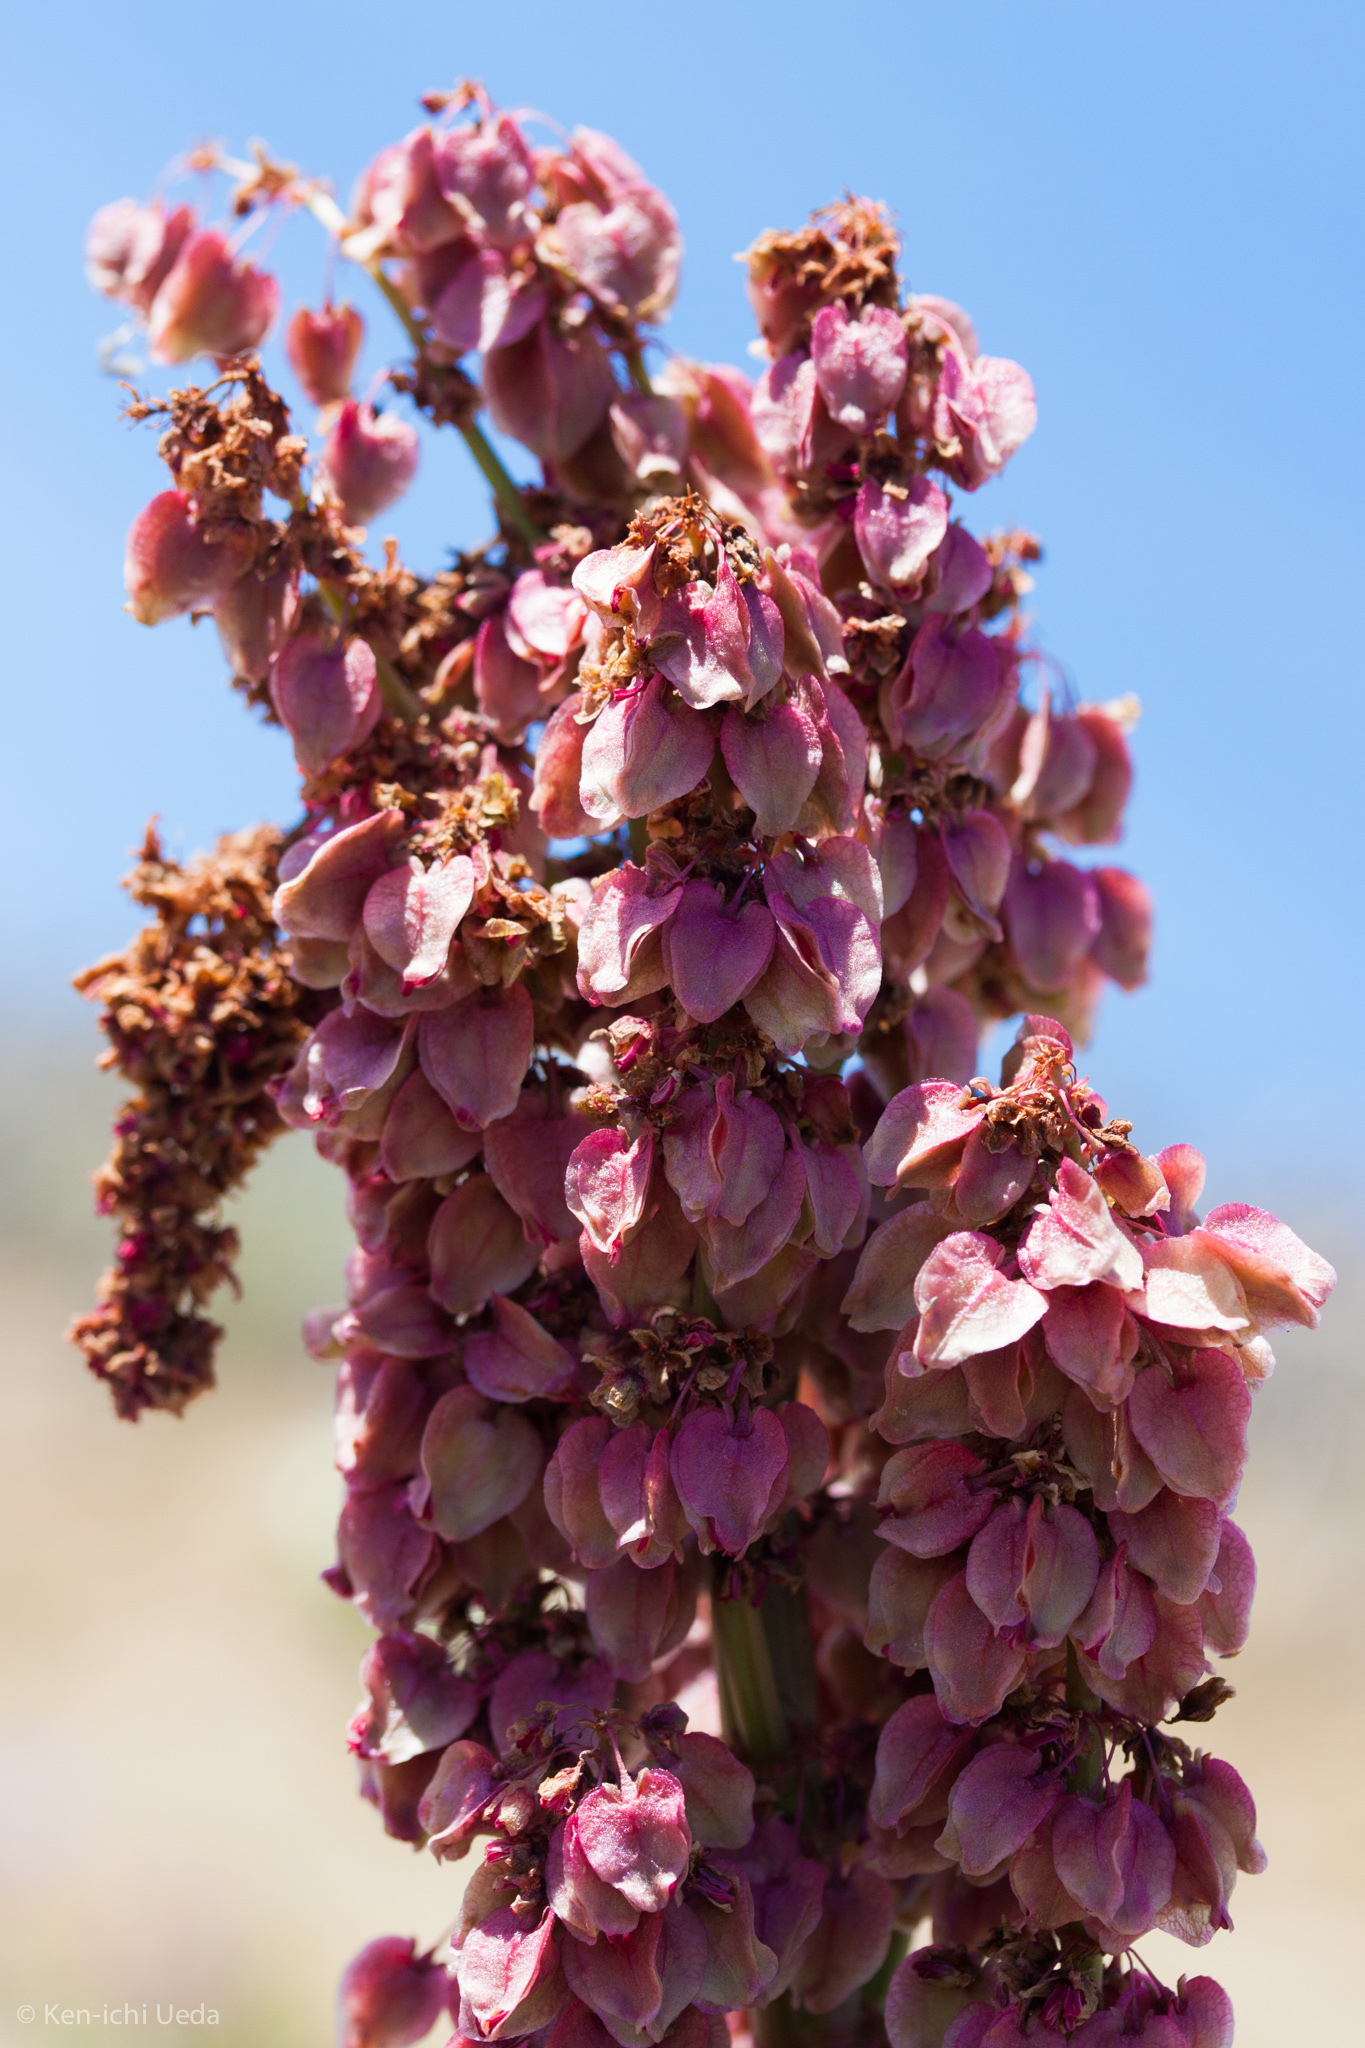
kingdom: Plantae
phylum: Tracheophyta
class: Magnoliopsida
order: Caryophyllales
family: Polygonaceae
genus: Rumex
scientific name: Rumex hymenosepalus
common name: Ganagra
